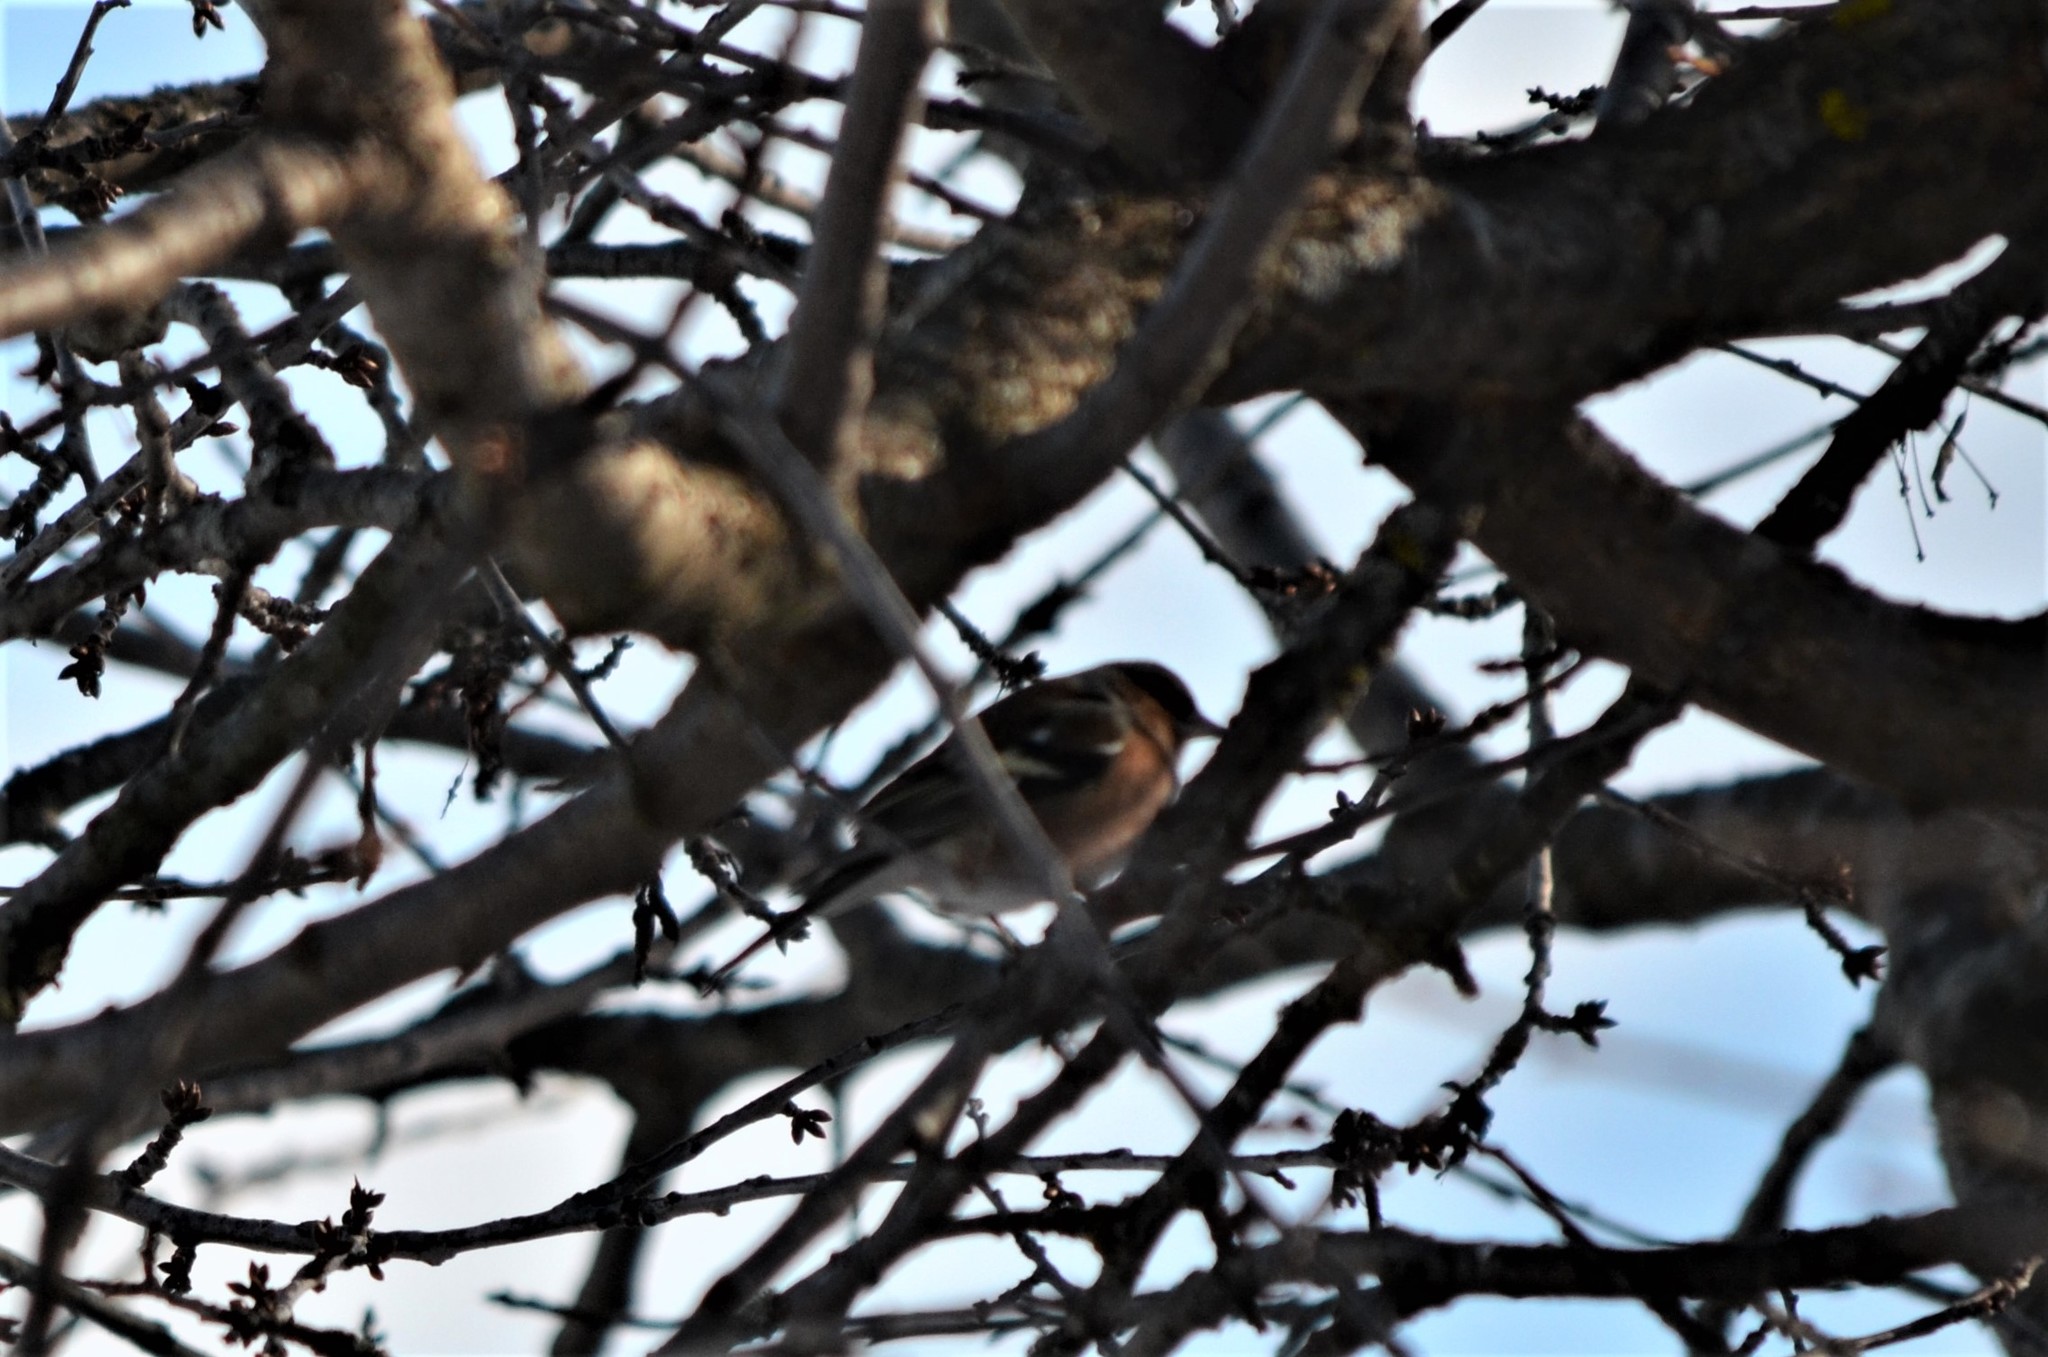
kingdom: Animalia
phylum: Chordata
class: Aves
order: Passeriformes
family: Fringillidae
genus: Fringilla
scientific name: Fringilla coelebs
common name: Common chaffinch
